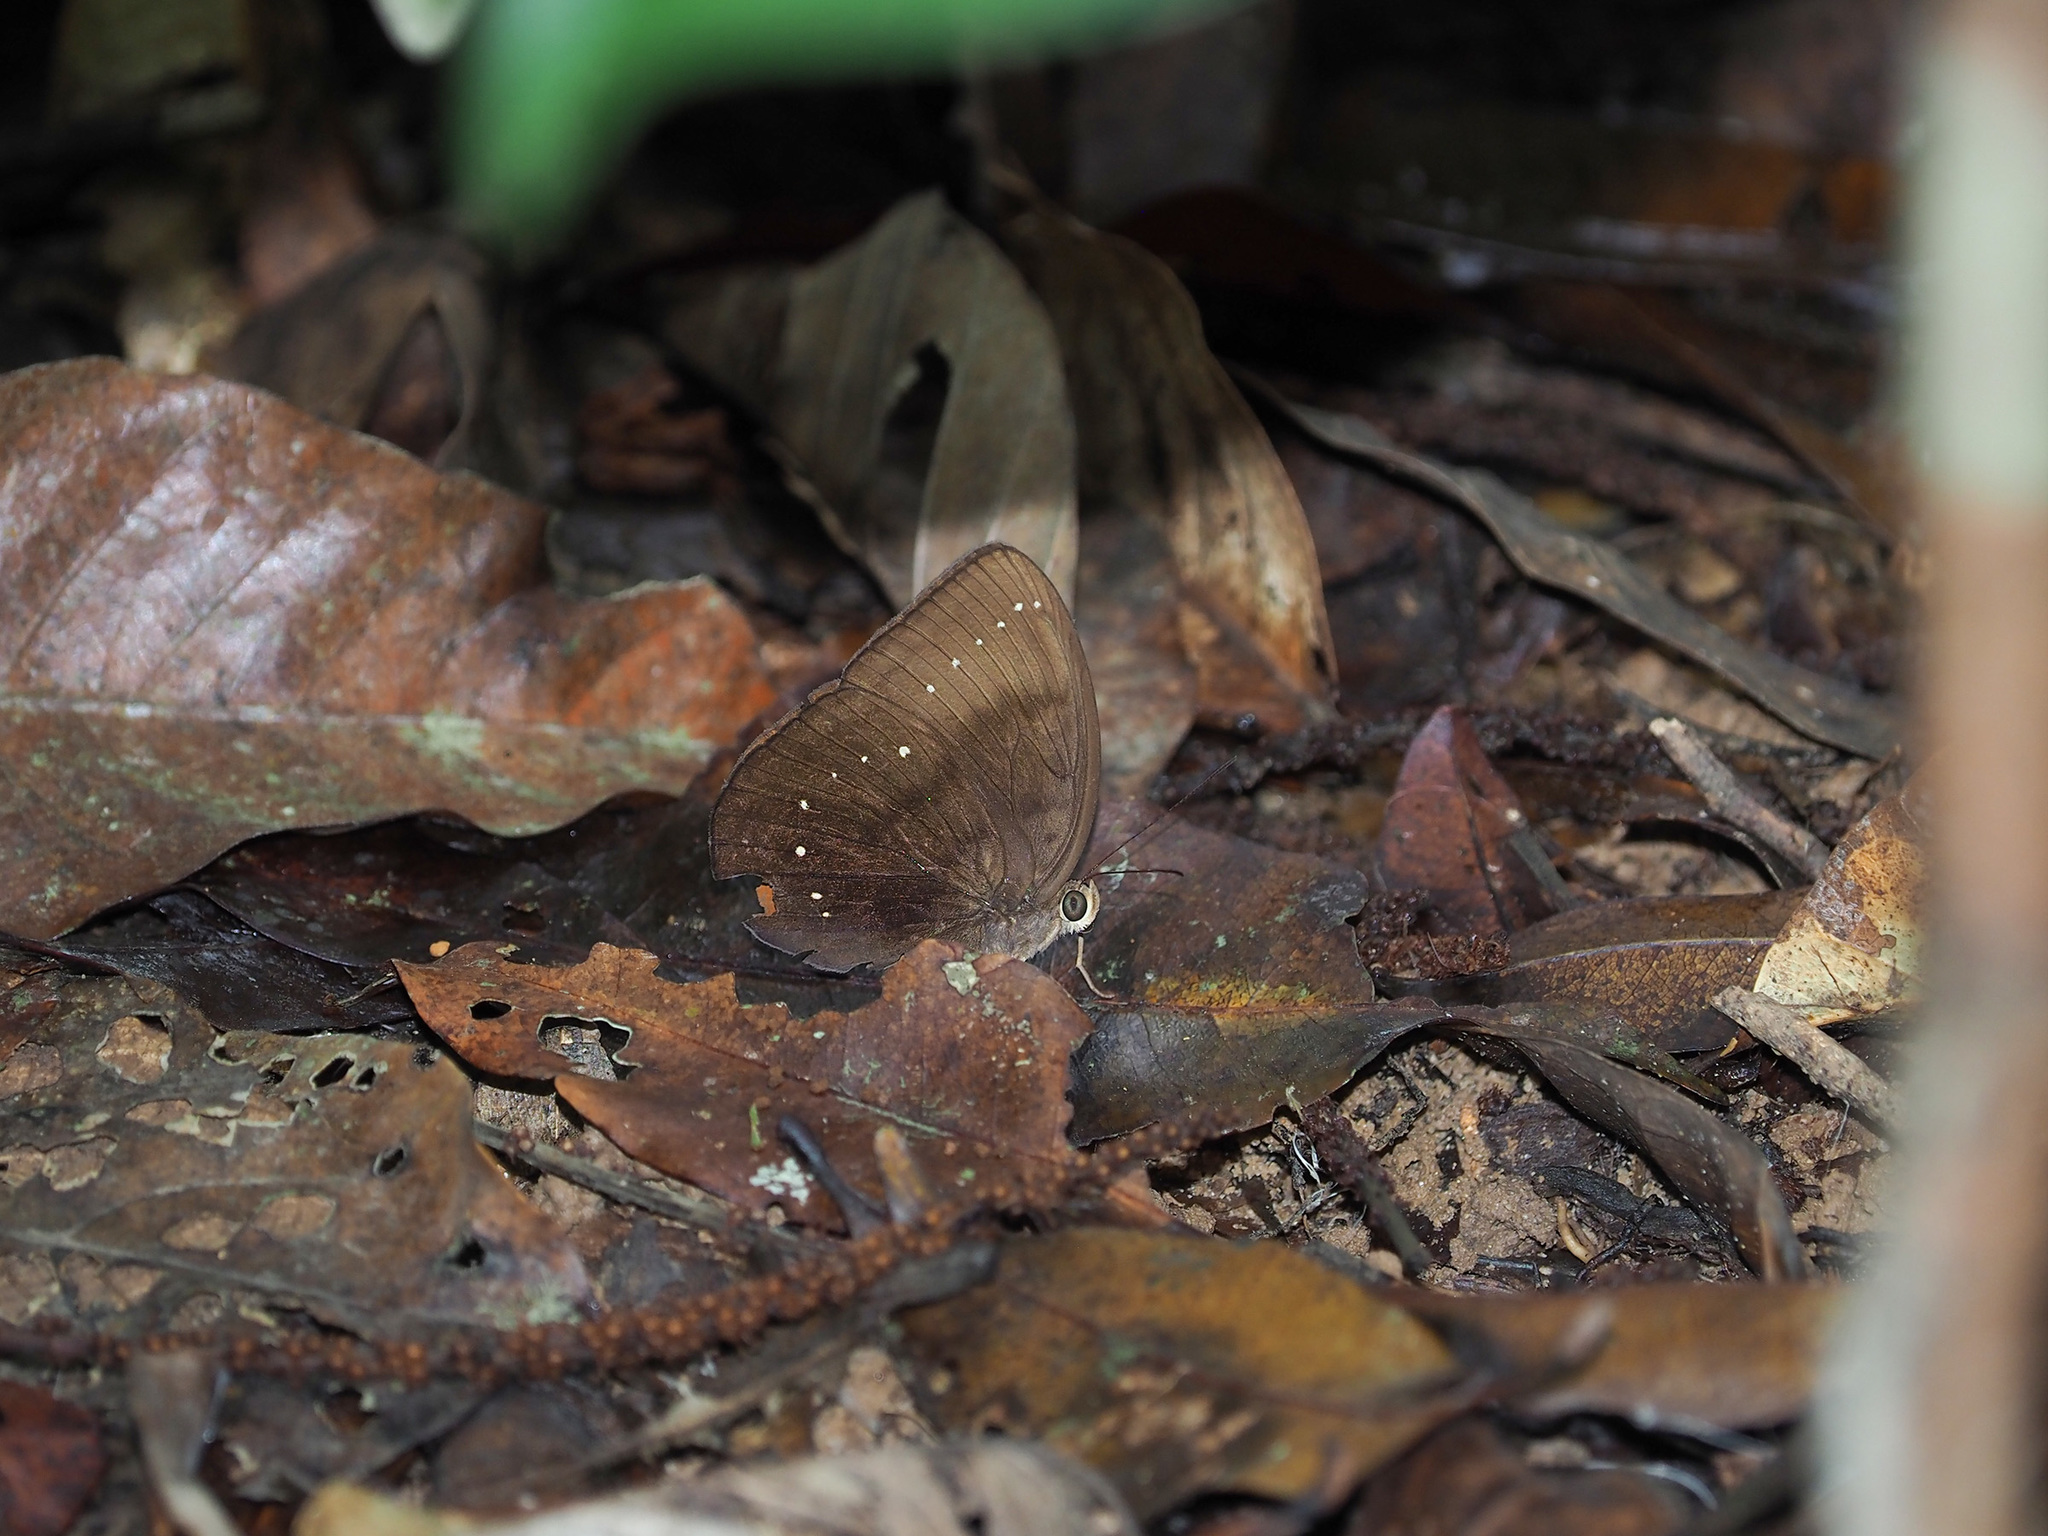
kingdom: Animalia
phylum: Arthropoda
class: Insecta
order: Lepidoptera
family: Nymphalidae
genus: Faunis
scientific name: Faunis kirata
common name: Broad striped faun
